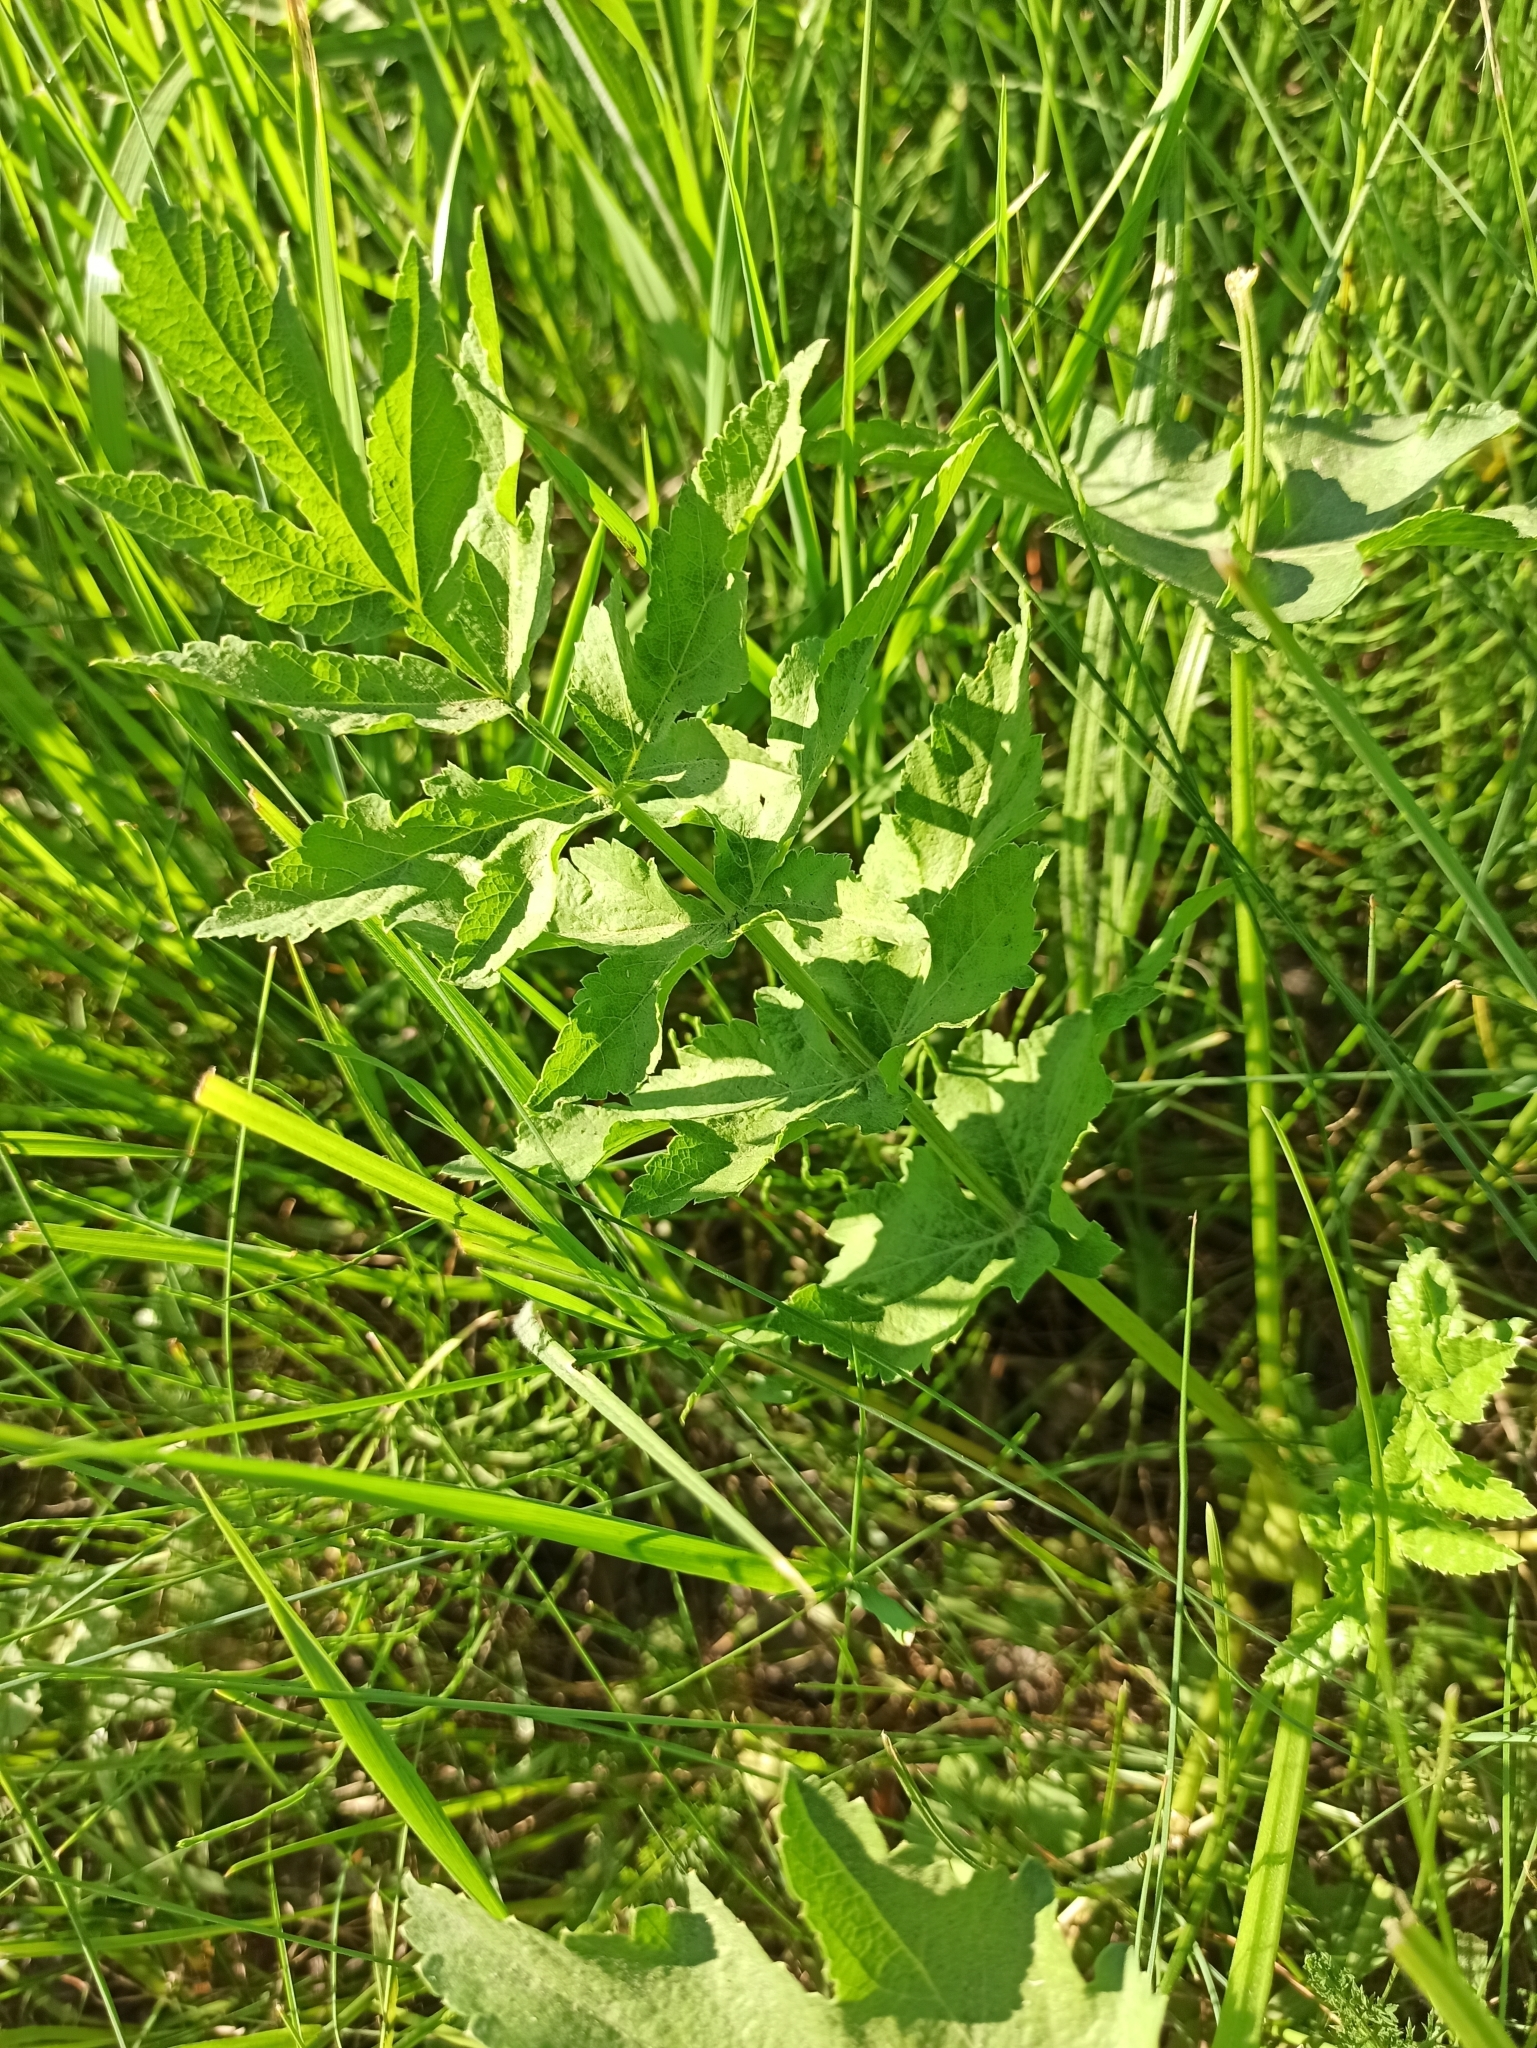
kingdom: Plantae
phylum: Tracheophyta
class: Magnoliopsida
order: Apiales
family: Apiaceae
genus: Pastinaca
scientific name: Pastinaca sativa
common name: Wild parsnip
